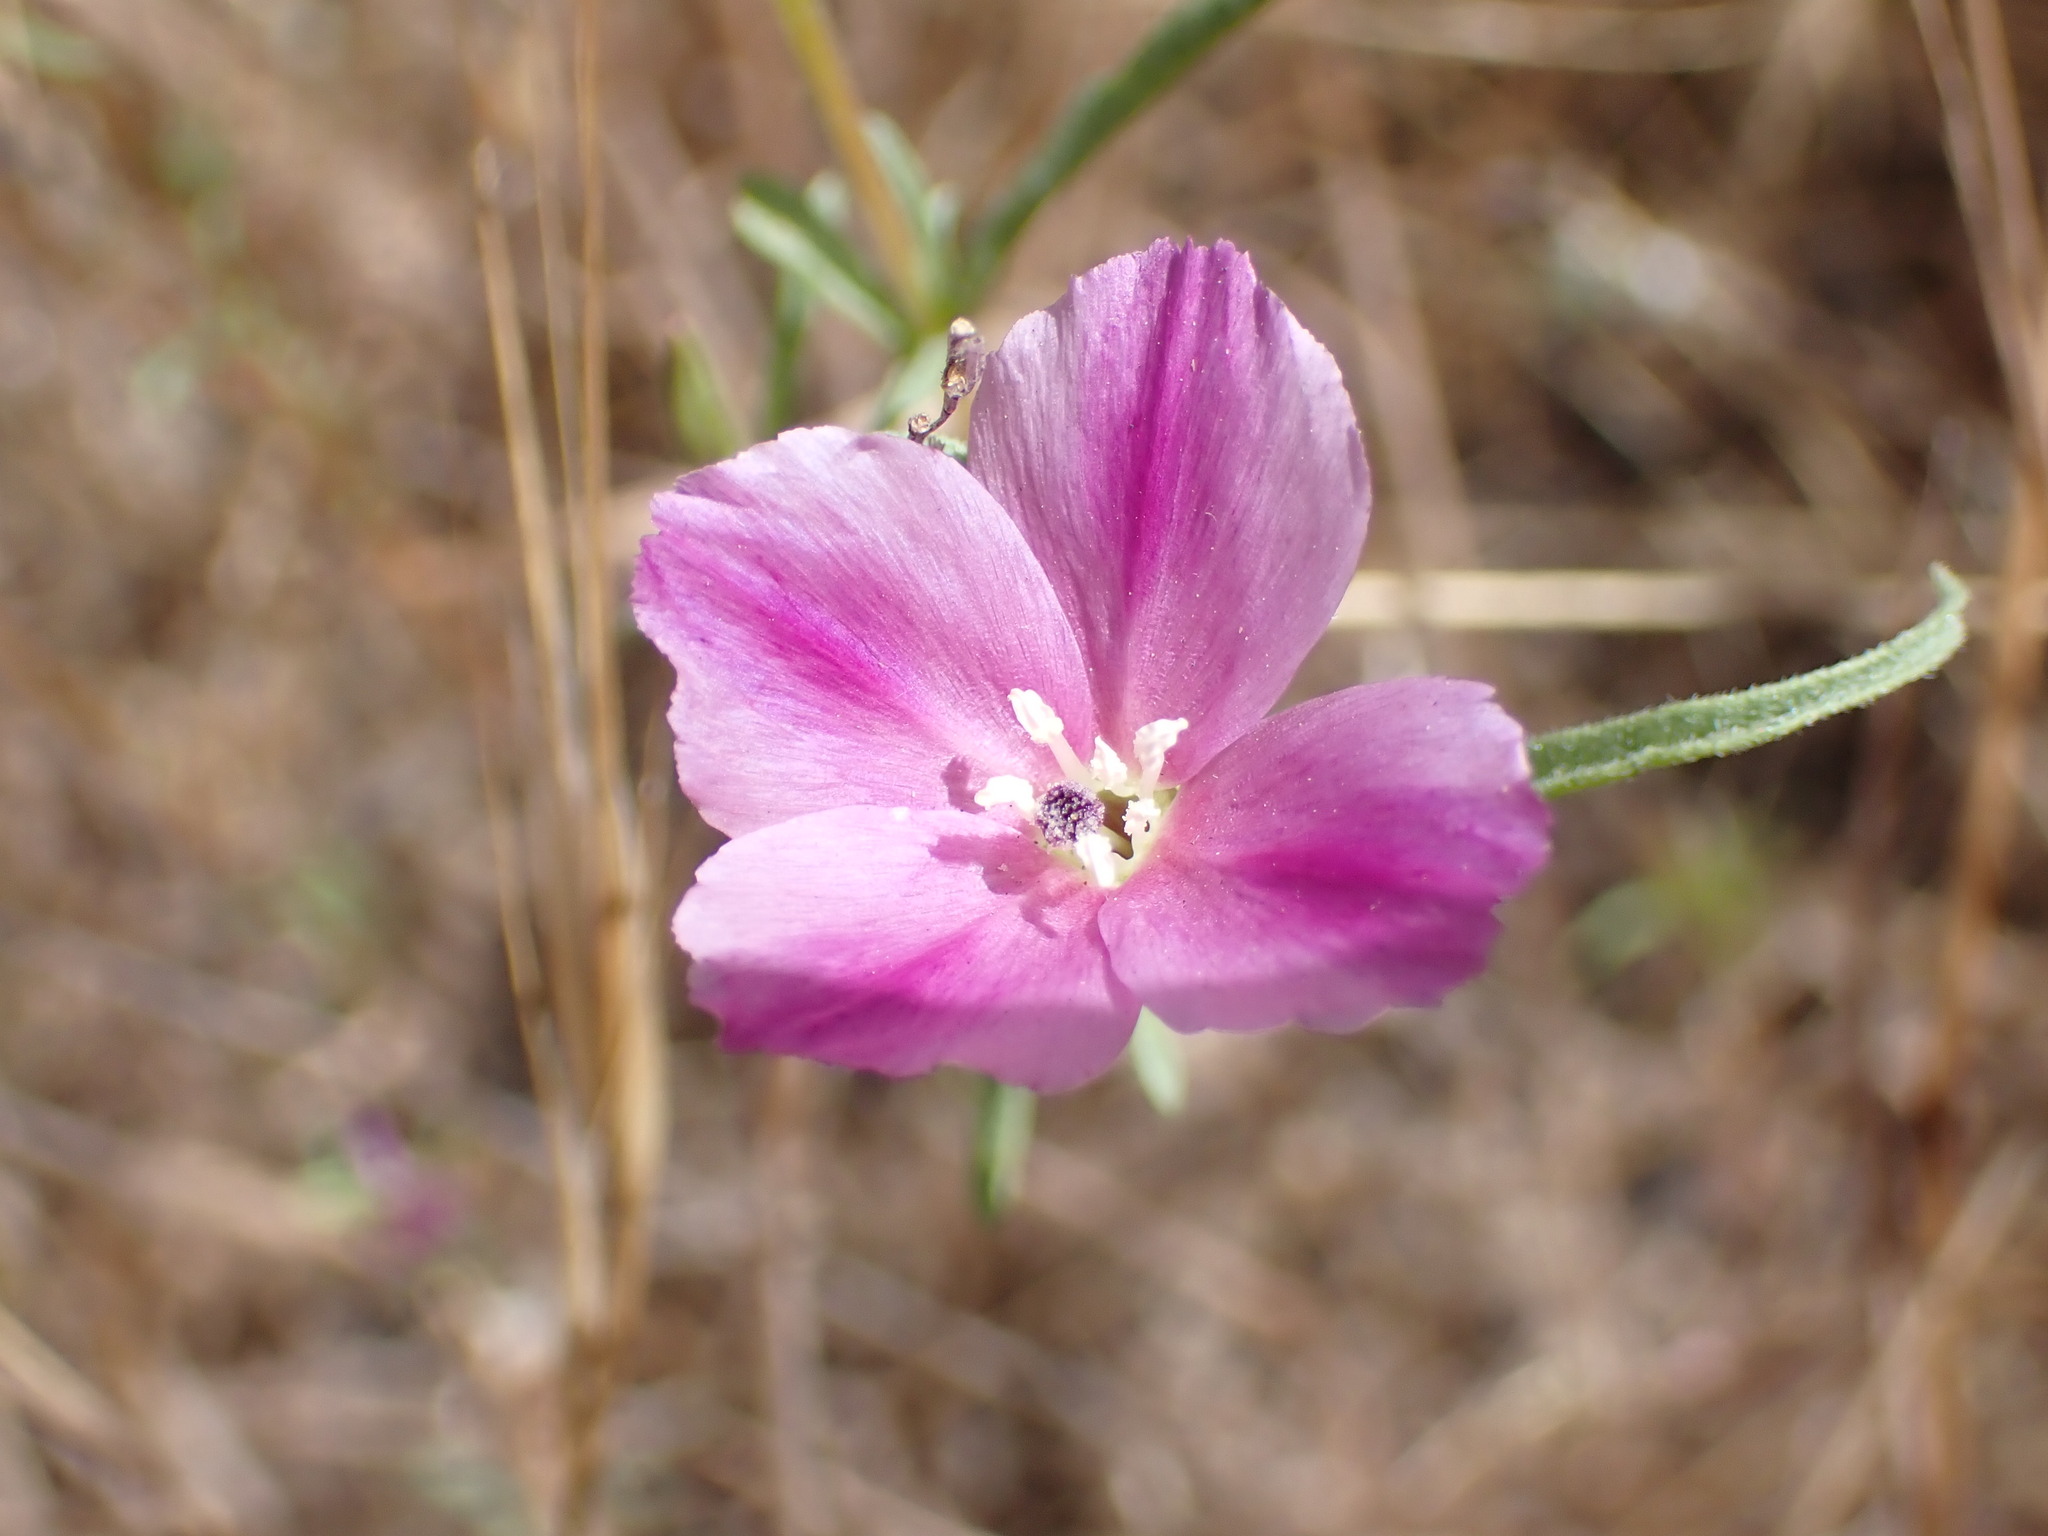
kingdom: Plantae
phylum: Tracheophyta
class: Magnoliopsida
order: Myrtales
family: Onagraceae
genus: Clarkia
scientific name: Clarkia purpurea
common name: Purple clarkia
